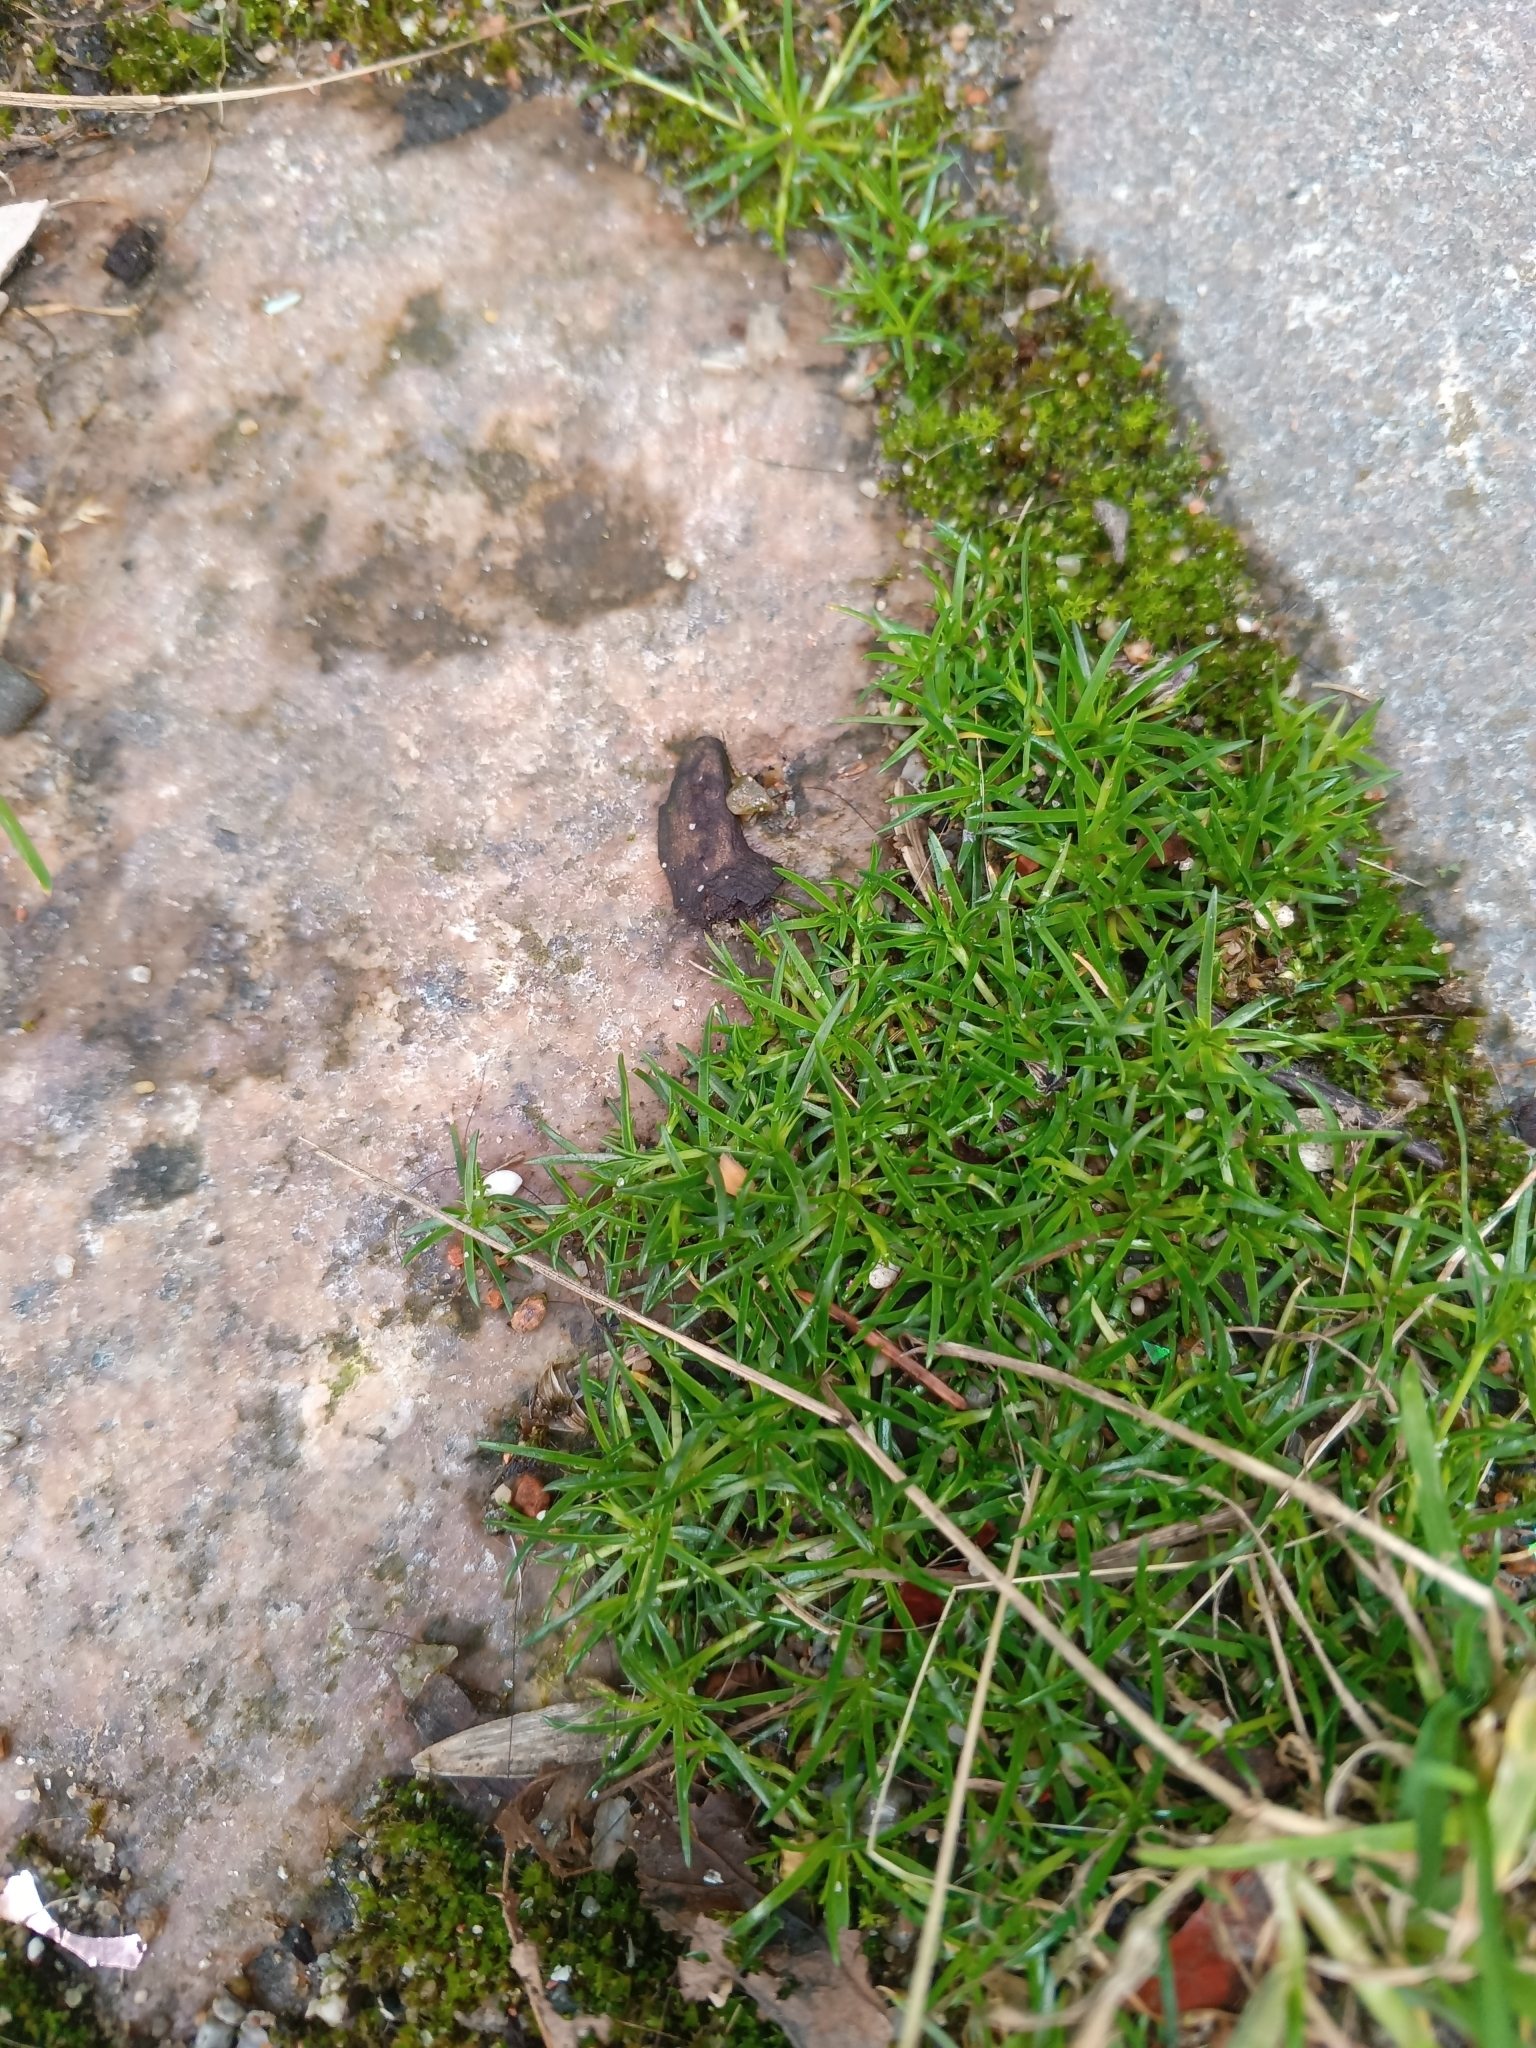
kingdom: Plantae
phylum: Tracheophyta
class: Magnoliopsida
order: Caryophyllales
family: Caryophyllaceae
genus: Sagina
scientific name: Sagina procumbens
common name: Procumbent pearlwort
